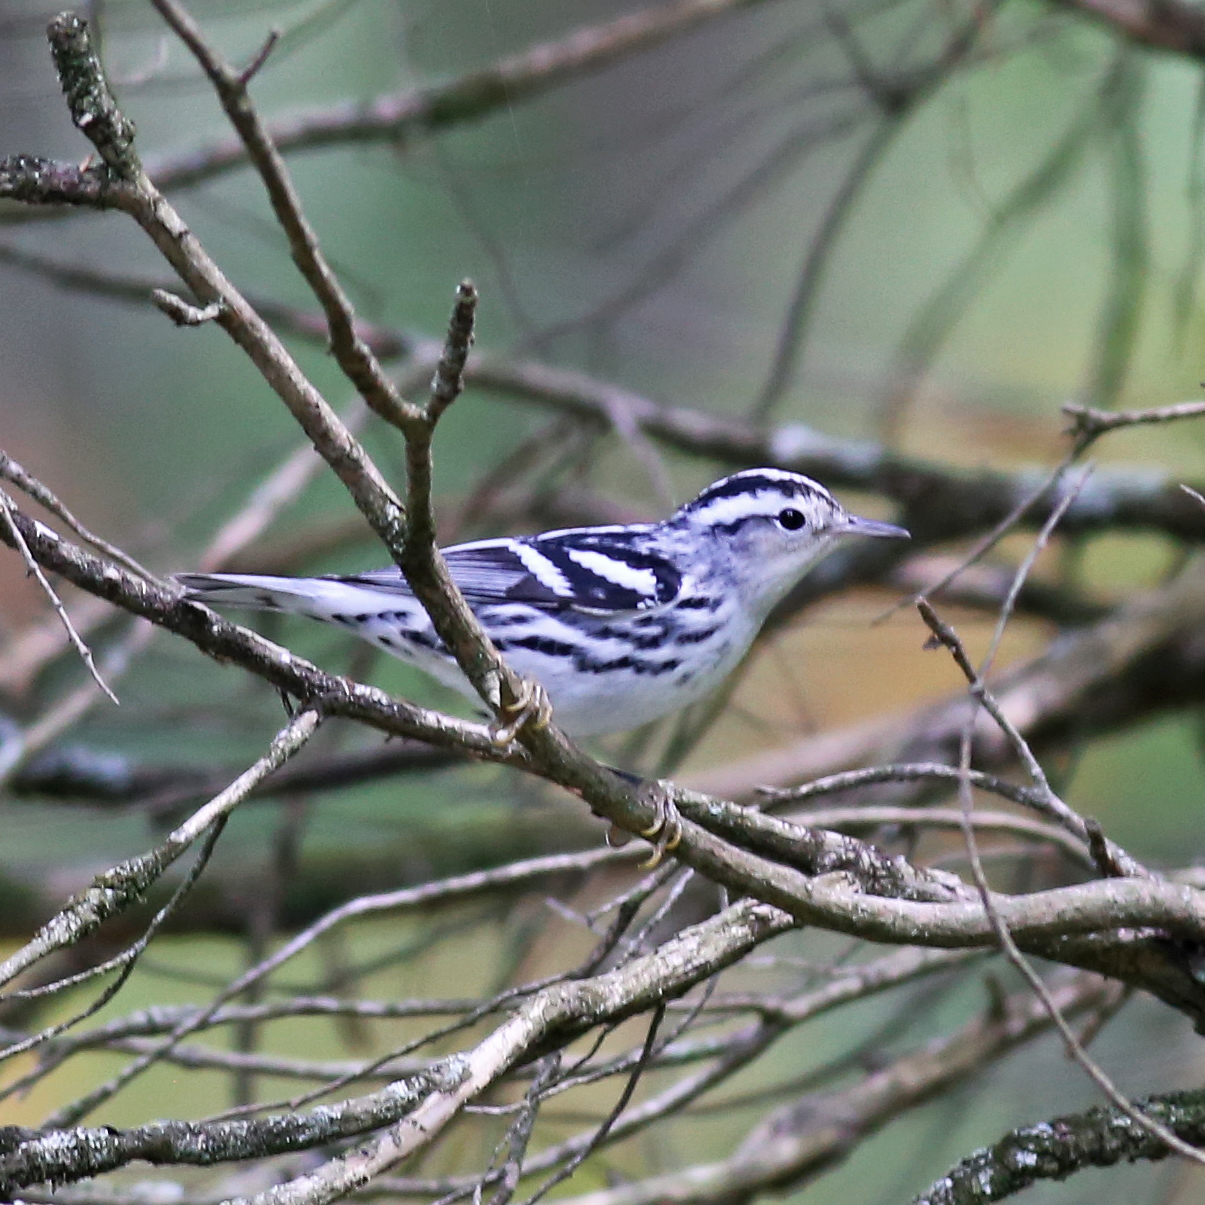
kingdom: Animalia
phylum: Chordata
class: Aves
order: Passeriformes
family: Parulidae
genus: Mniotilta
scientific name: Mniotilta varia
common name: Black-and-white warbler
